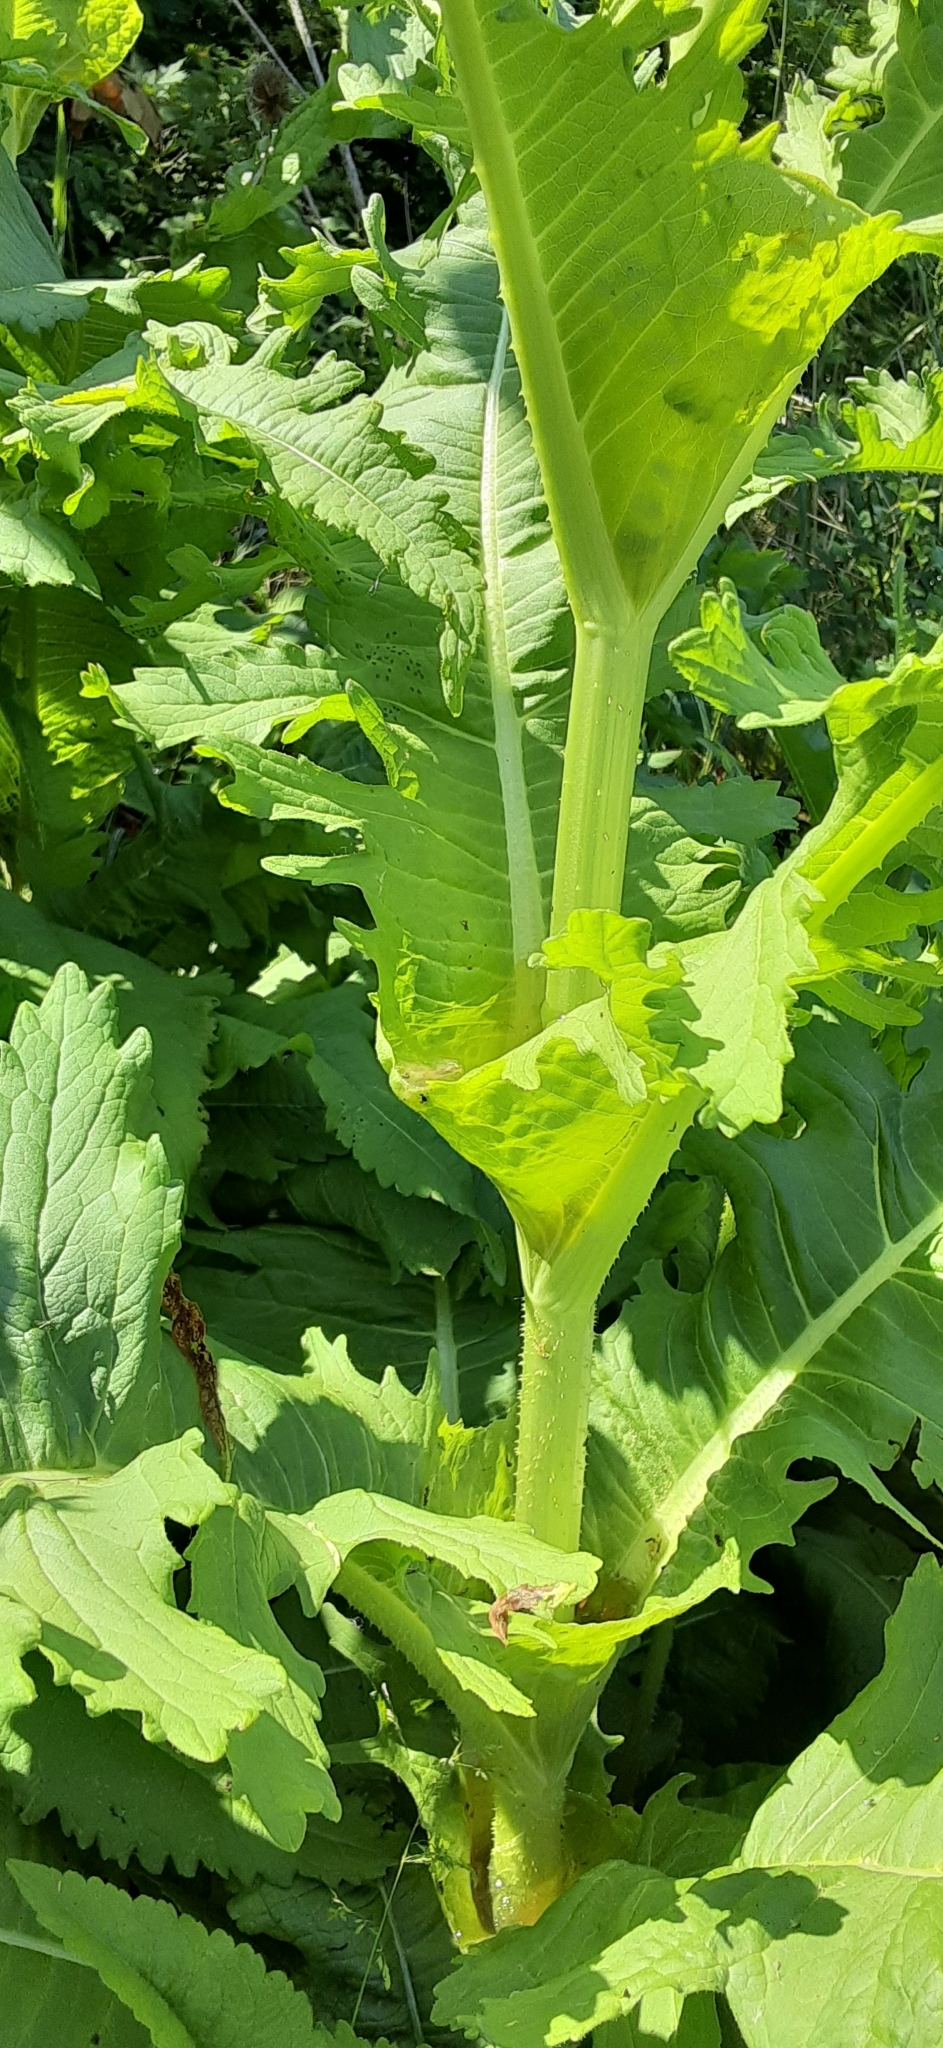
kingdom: Plantae
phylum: Tracheophyta
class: Magnoliopsida
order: Dipsacales
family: Caprifoliaceae
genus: Dipsacus
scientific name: Dipsacus laciniatus
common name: Cut-leaved teasel
